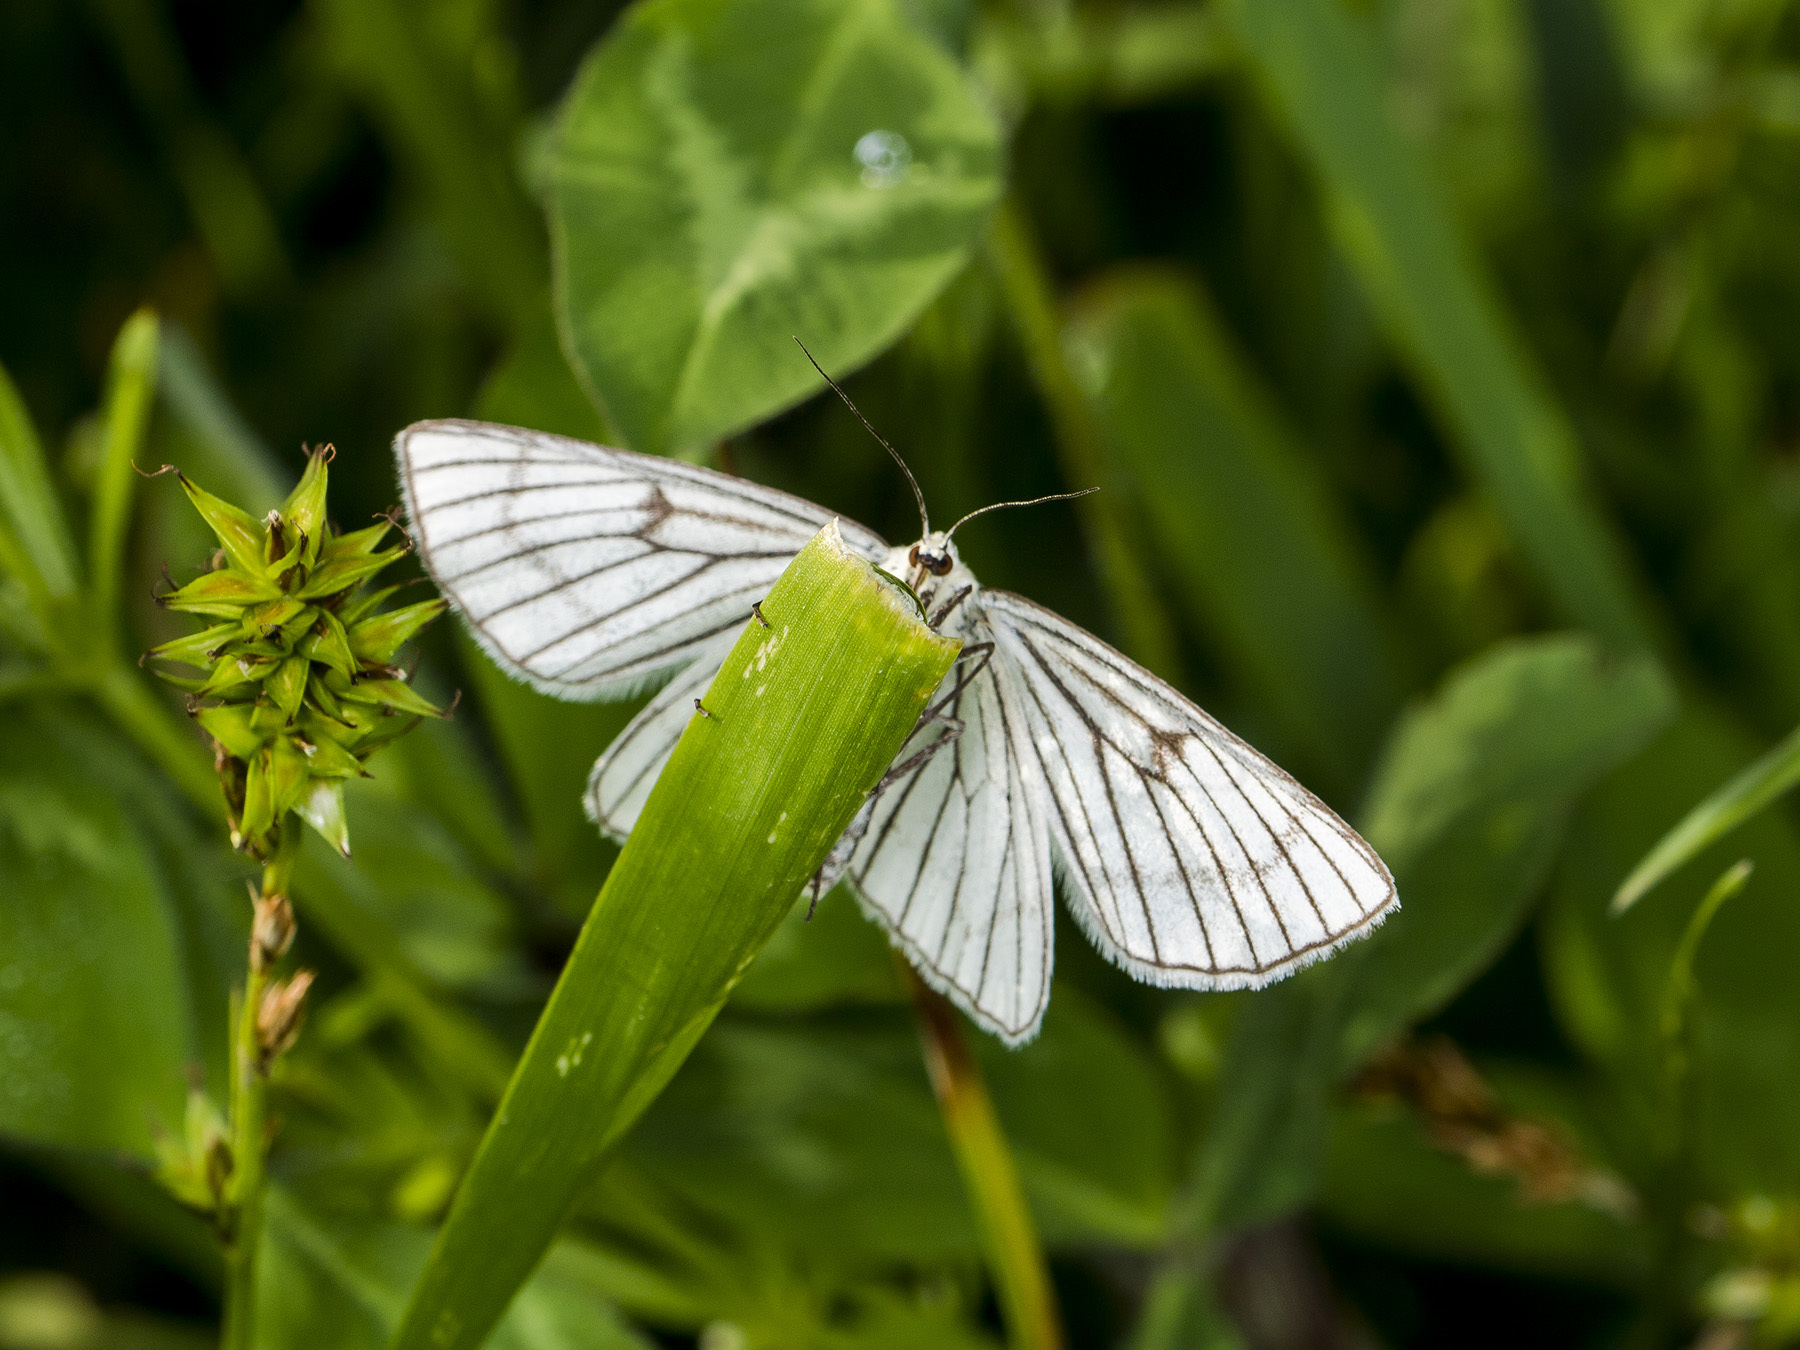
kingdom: Animalia
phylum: Arthropoda
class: Insecta
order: Lepidoptera
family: Geometridae
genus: Siona
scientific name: Siona lineata
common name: Black-veined moth
